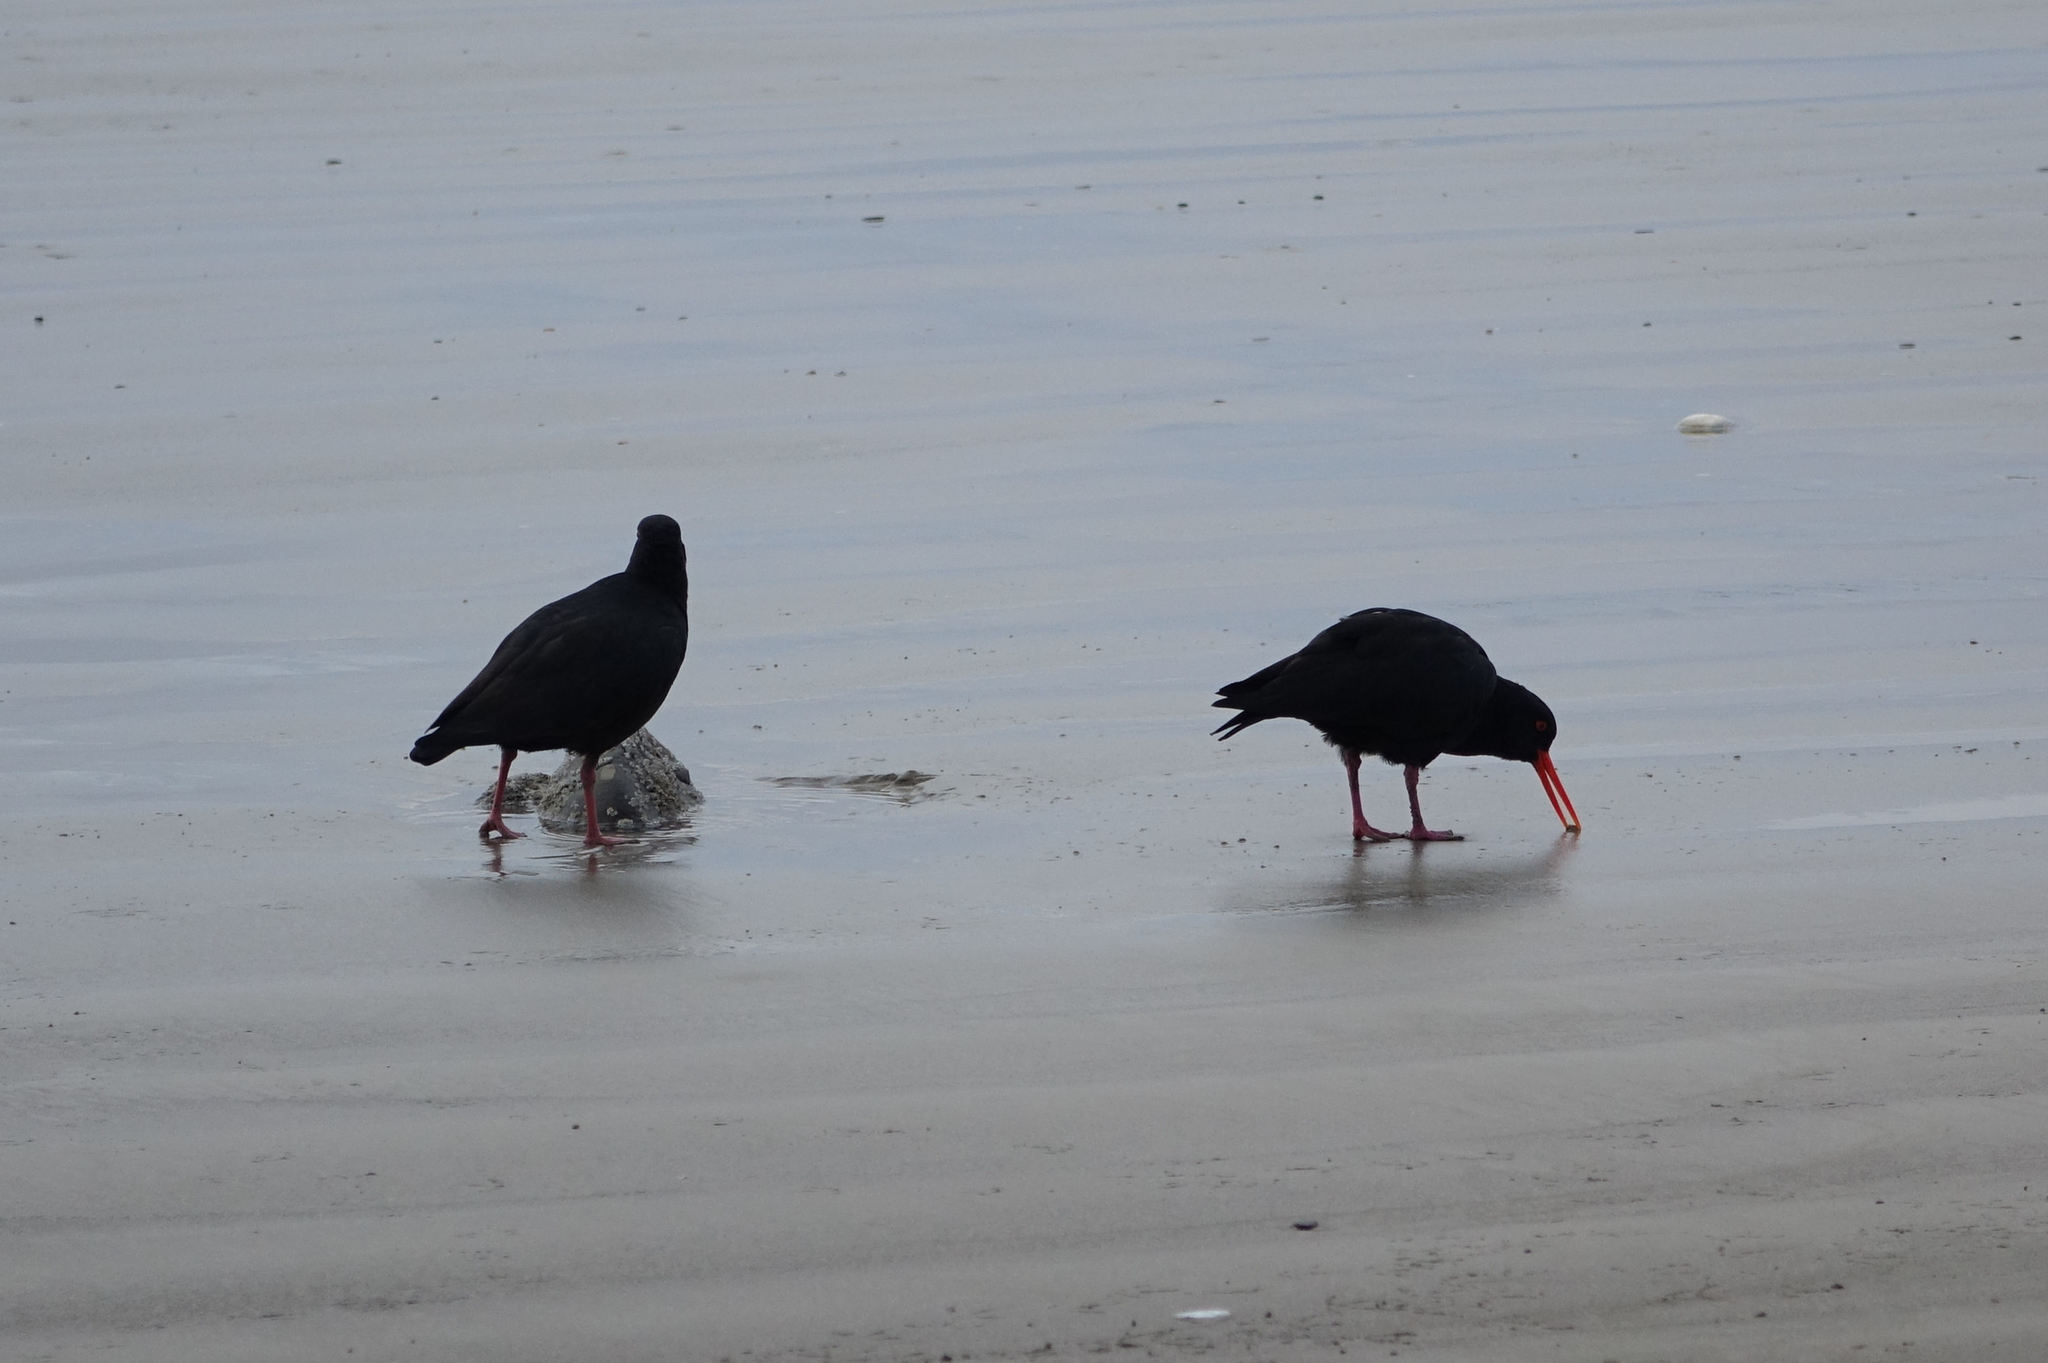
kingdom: Animalia
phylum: Chordata
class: Aves
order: Charadriiformes
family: Haematopodidae
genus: Haematopus
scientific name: Haematopus unicolor
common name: Variable oystercatcher
